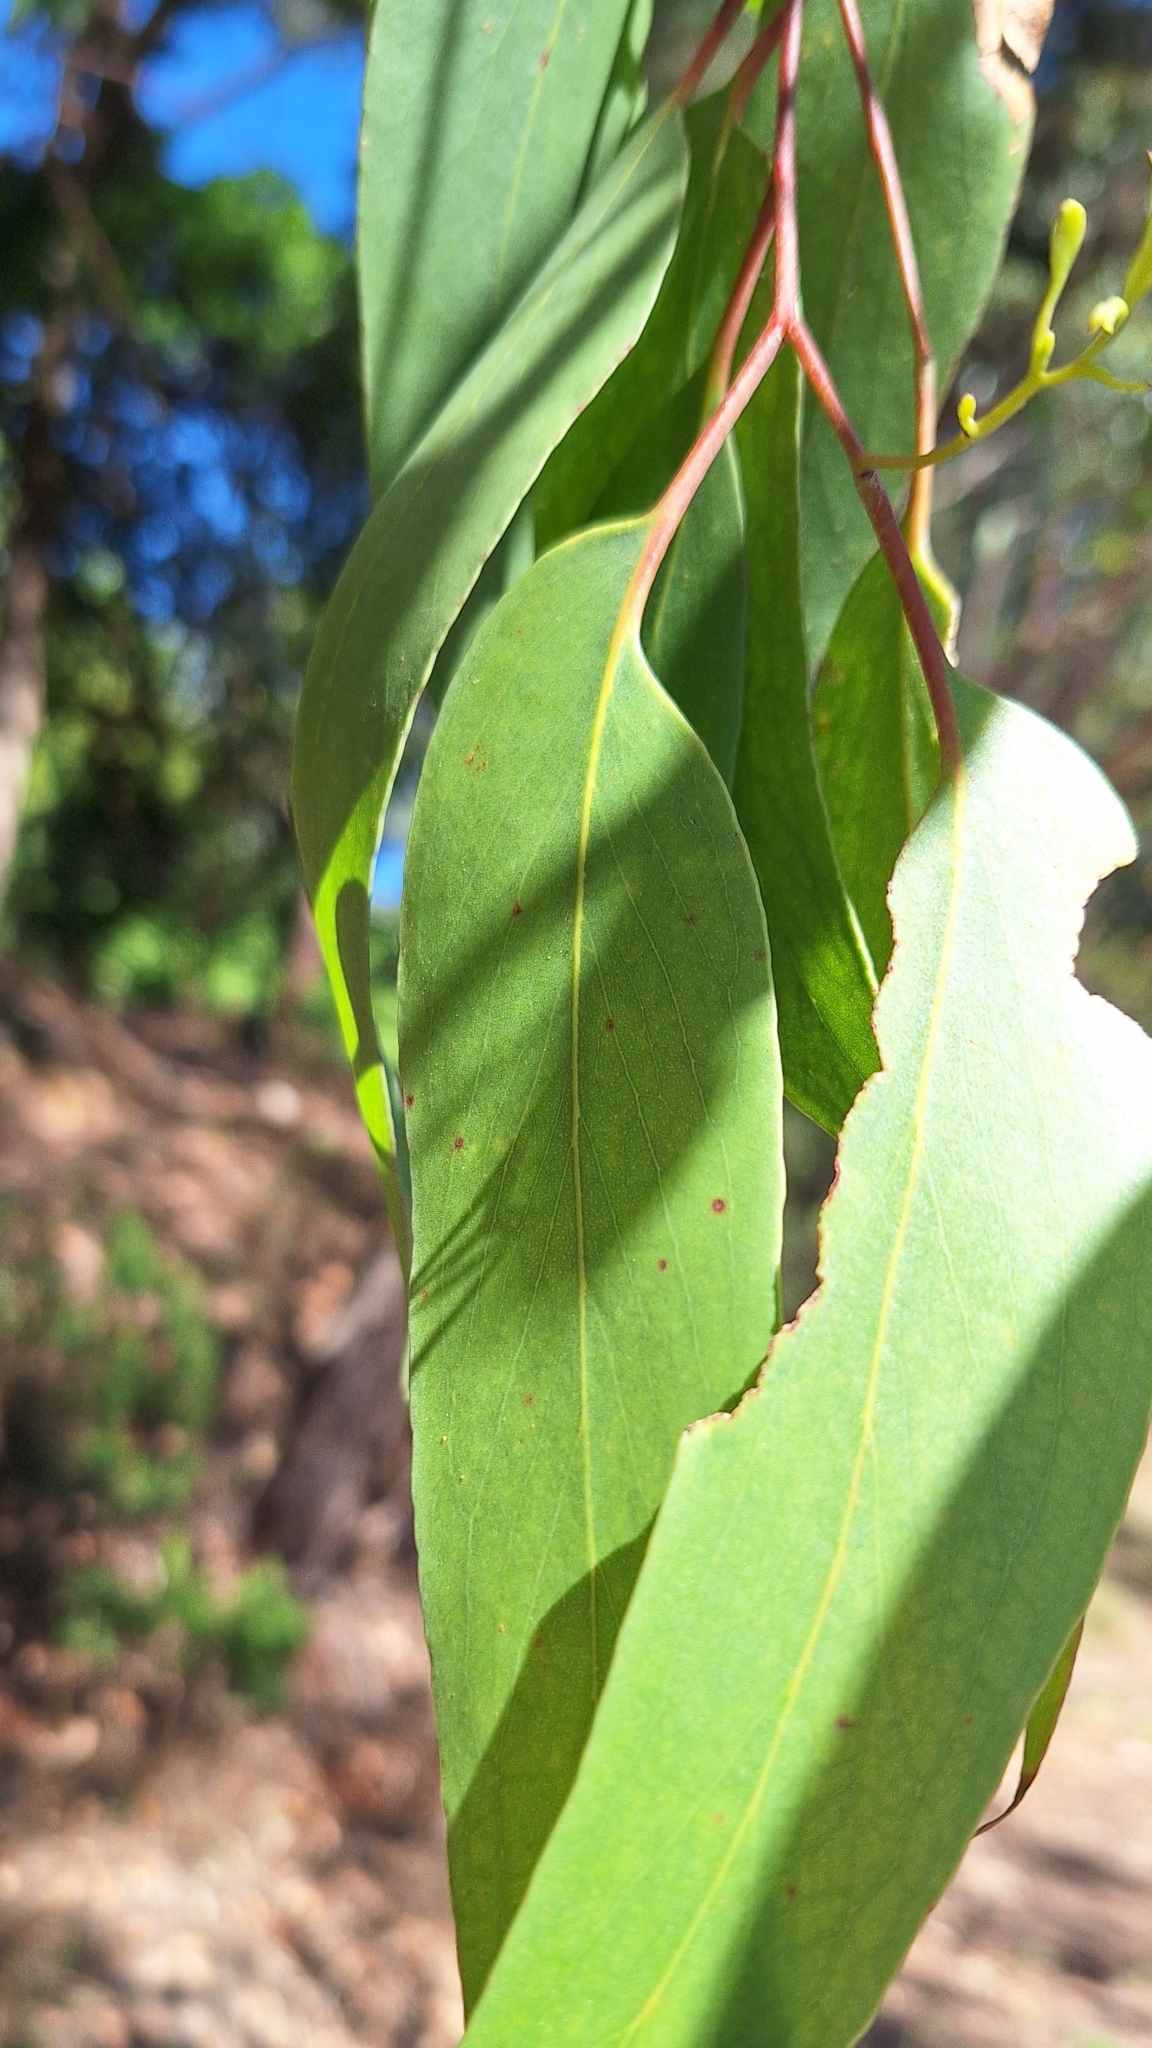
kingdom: Plantae
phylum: Tracheophyta
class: Magnoliopsida
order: Myrtales
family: Myrtaceae
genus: Eucalyptus
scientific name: Eucalyptus obliqua
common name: Messmate stringybark
